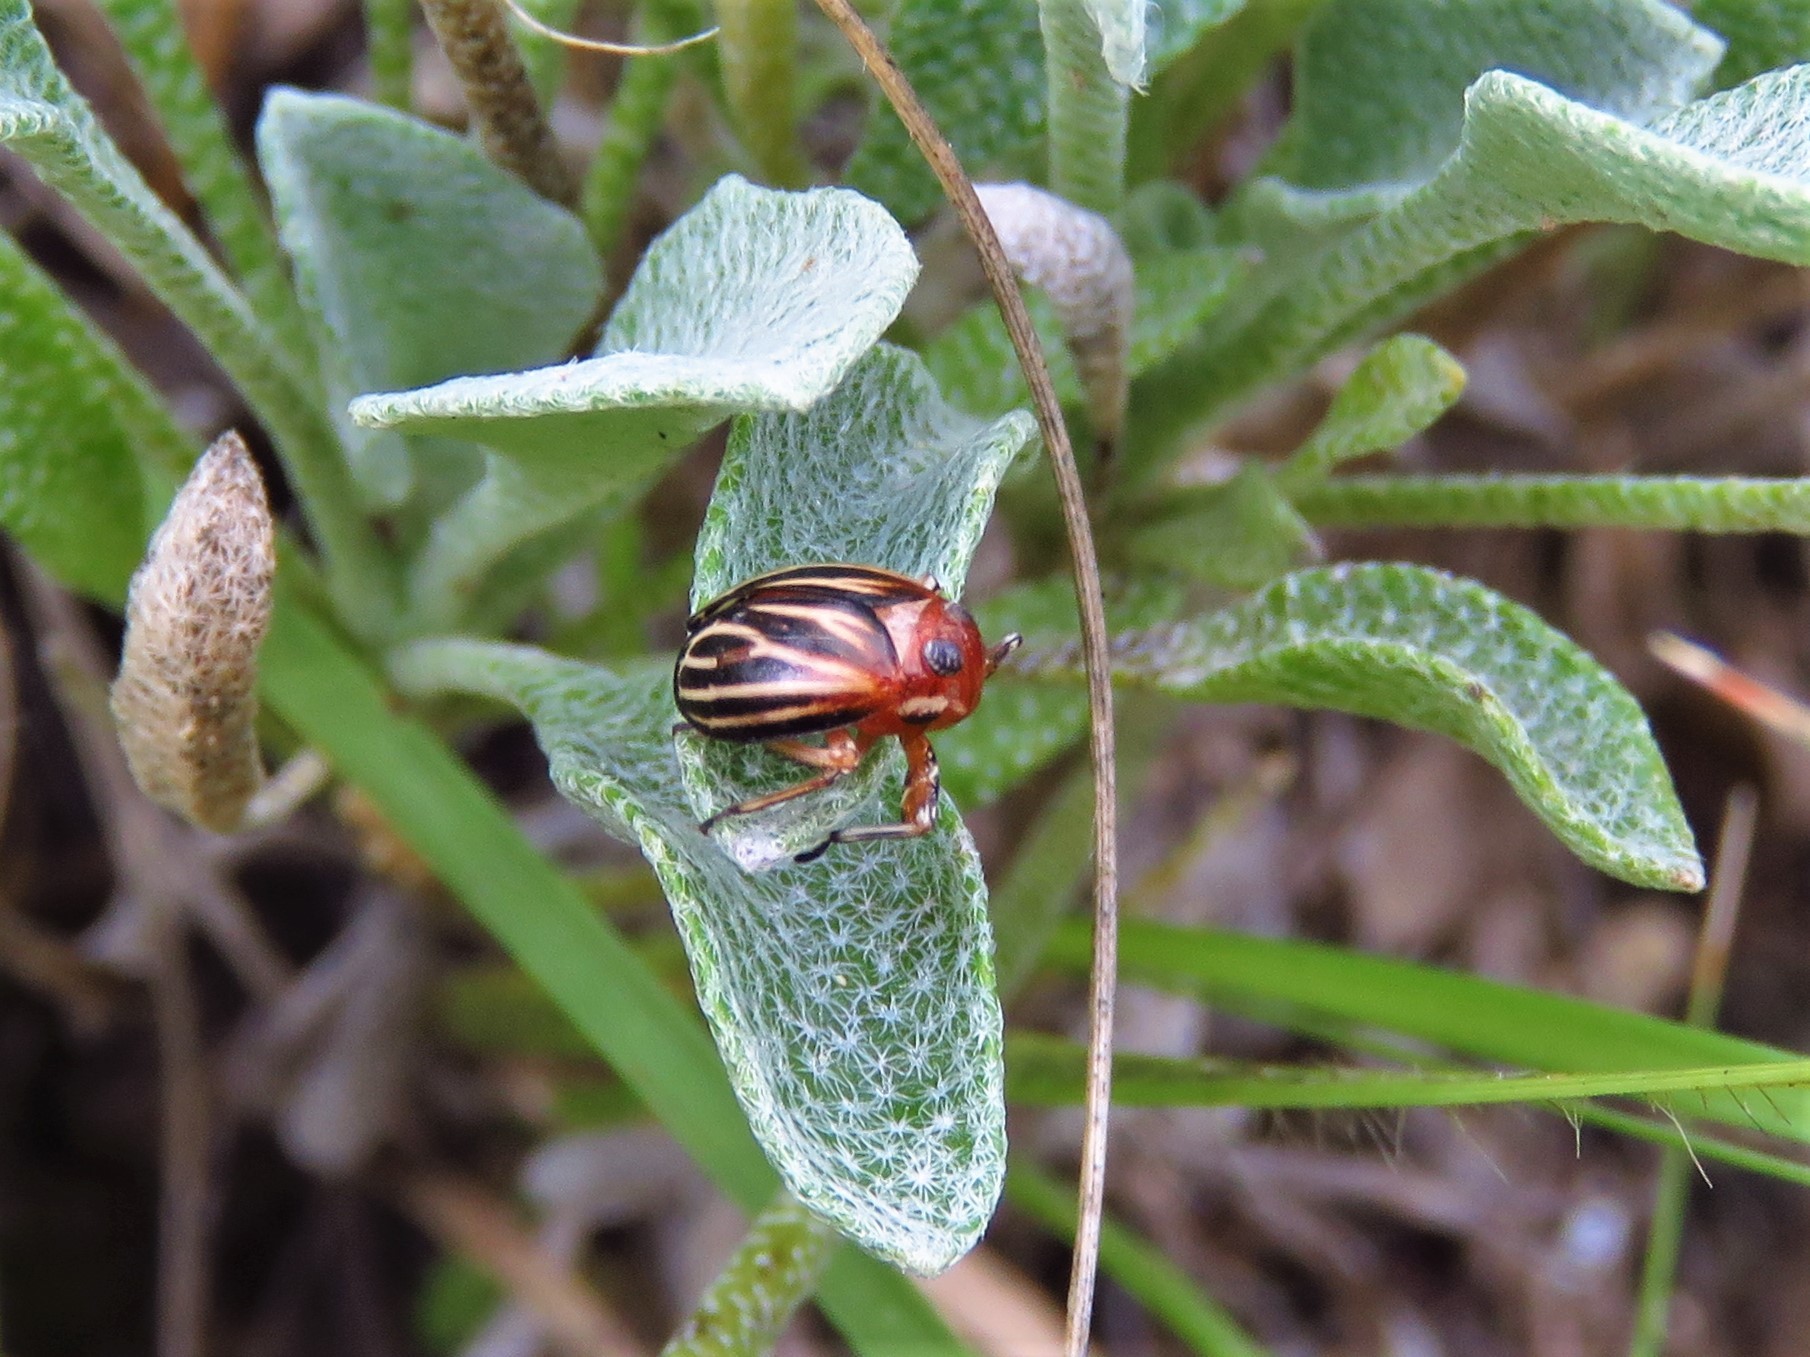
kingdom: Animalia
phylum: Arthropoda
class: Insecta
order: Hemiptera
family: Achilidae
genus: Isodaemon
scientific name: Isodaemon orontes
